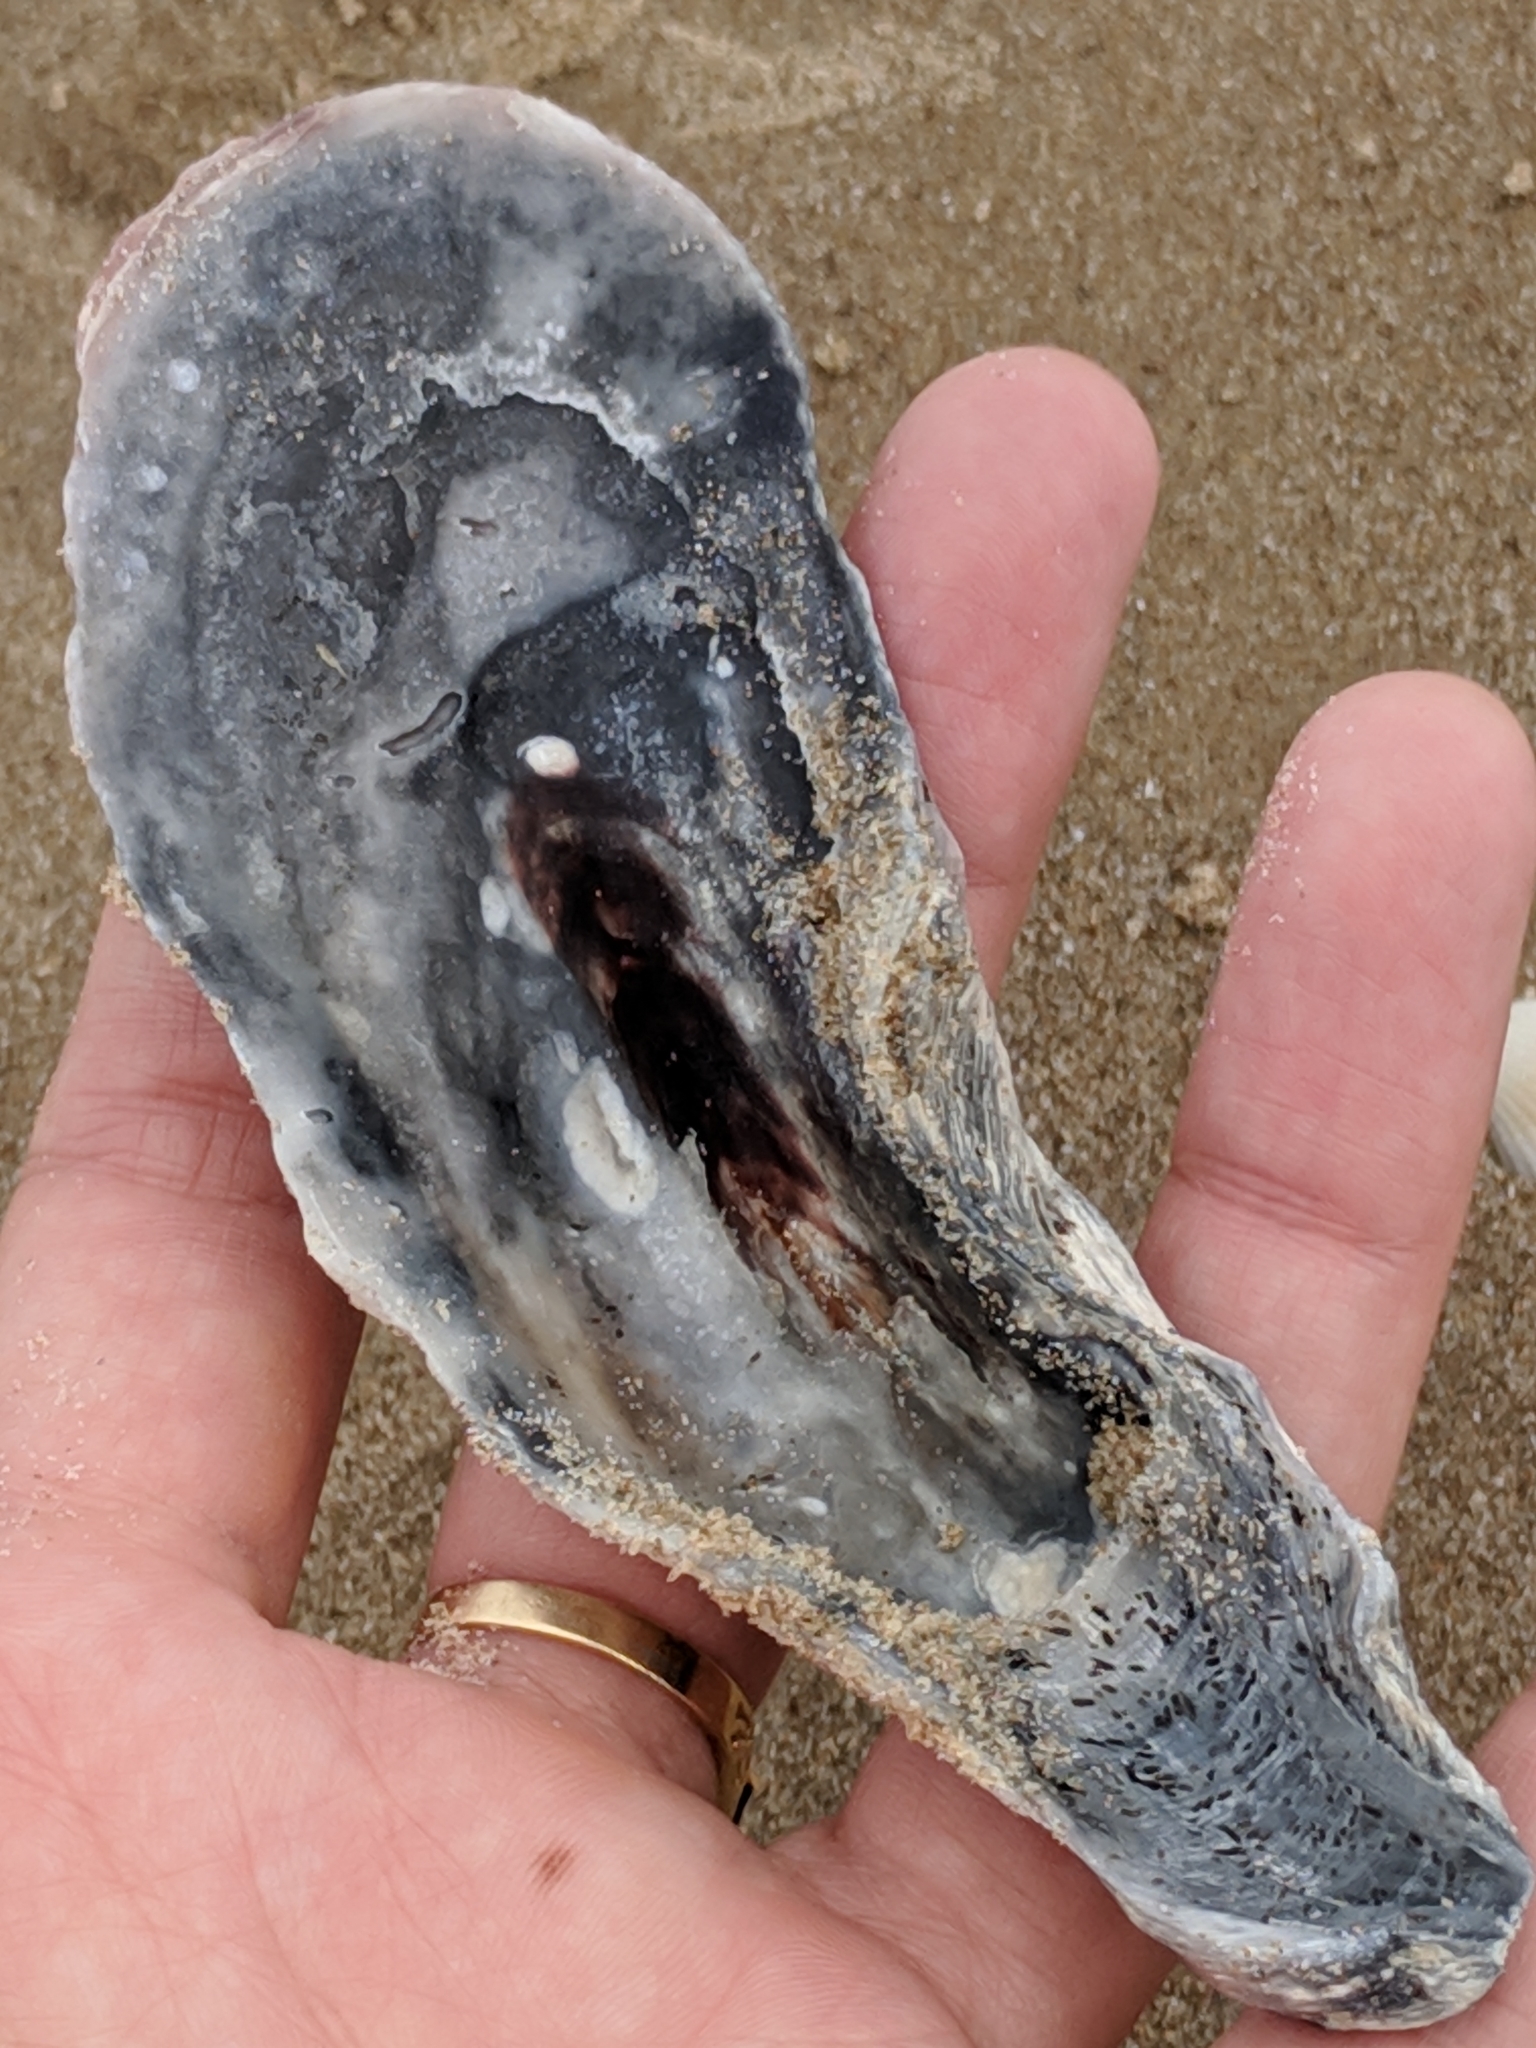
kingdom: Animalia
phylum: Mollusca
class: Bivalvia
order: Ostreida
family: Ostreidae
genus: Crassostrea
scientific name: Crassostrea virginica
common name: American oyster
